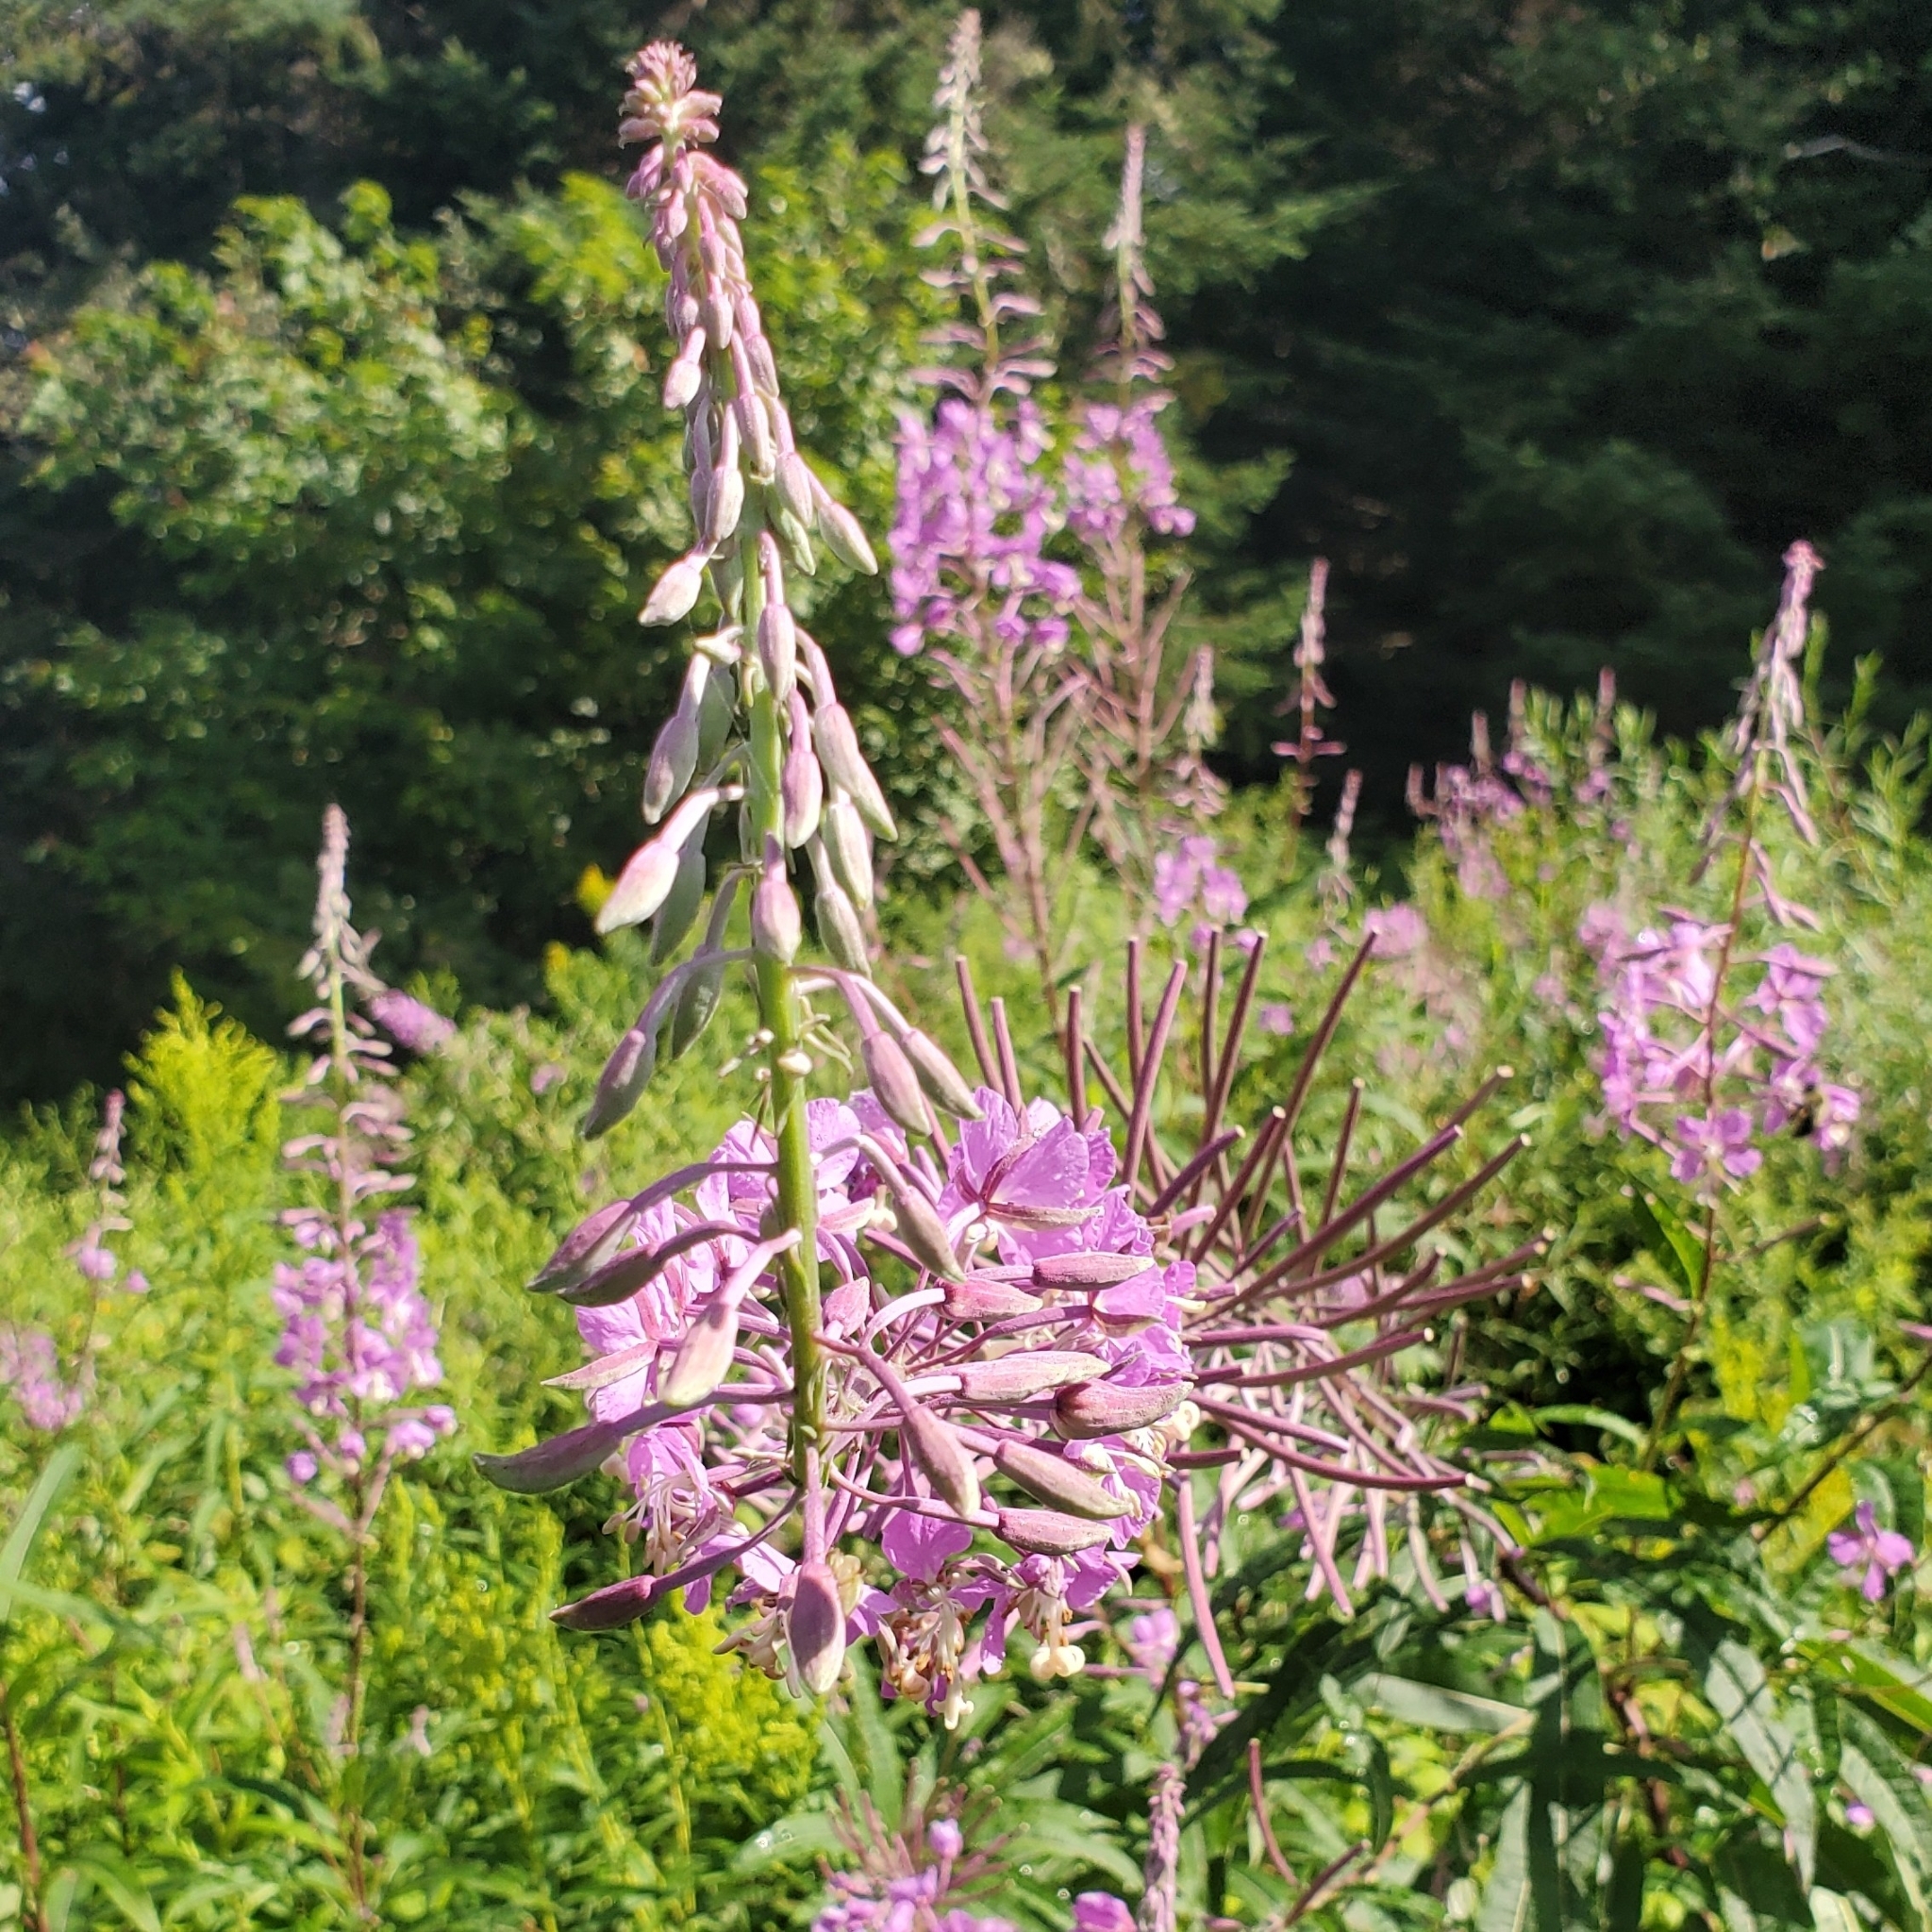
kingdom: Plantae
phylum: Tracheophyta
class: Magnoliopsida
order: Myrtales
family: Onagraceae
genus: Chamaenerion
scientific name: Chamaenerion angustifolium
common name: Fireweed
